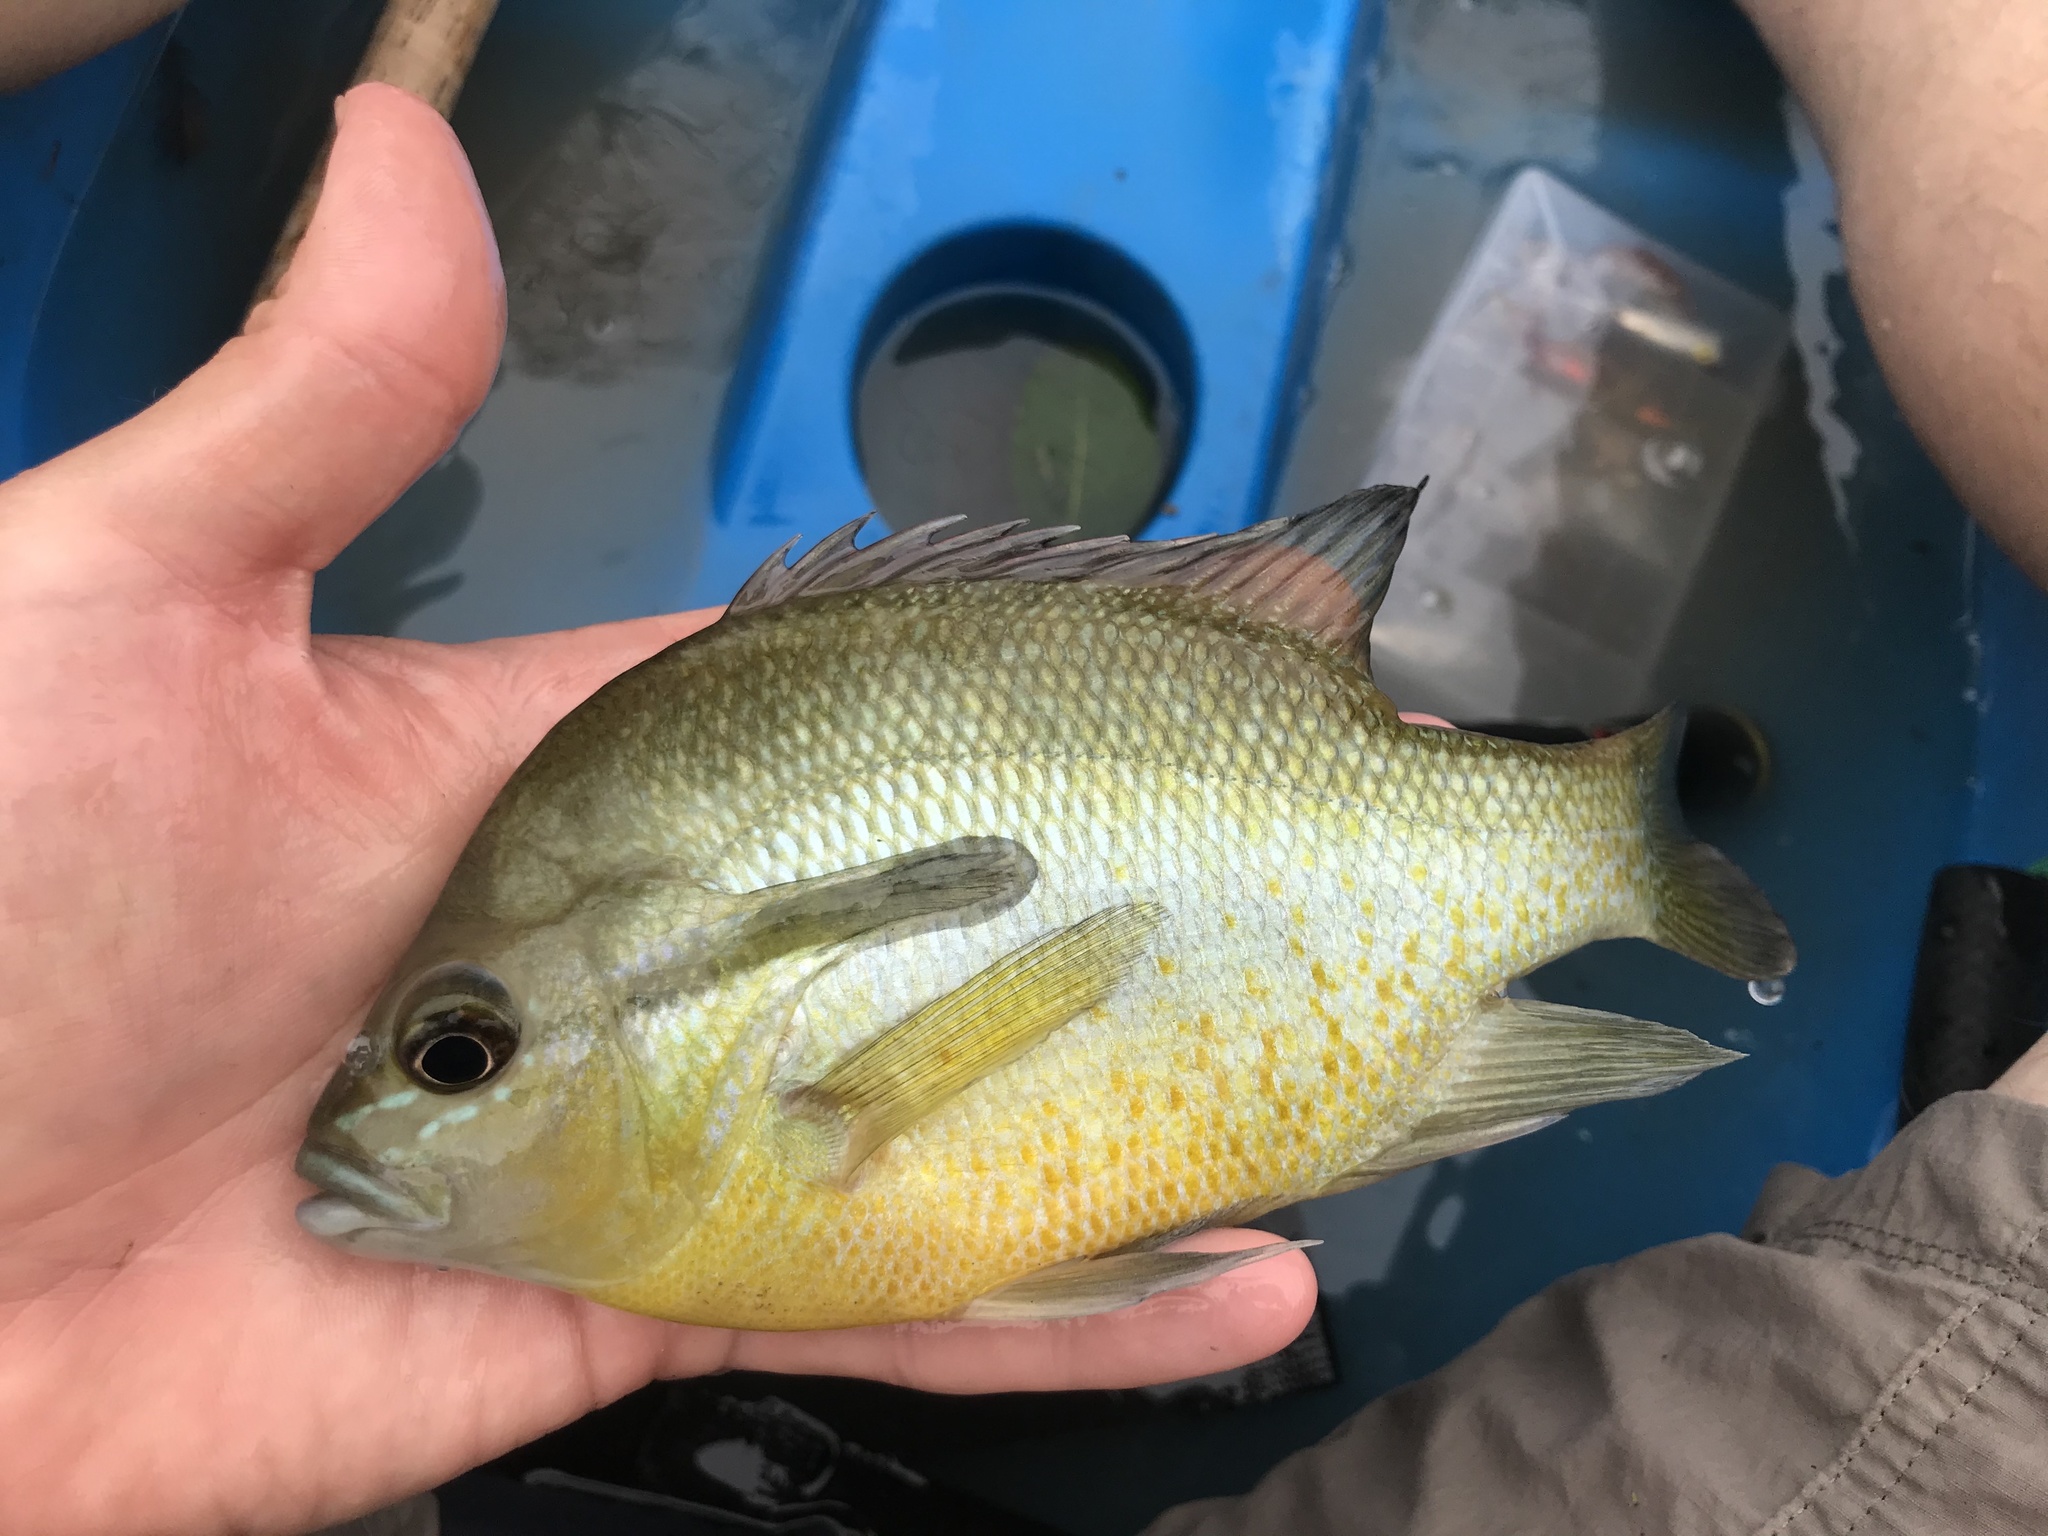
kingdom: Animalia
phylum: Chordata
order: Perciformes
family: Centrarchidae
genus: Lepomis
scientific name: Lepomis auritus
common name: Redbreast sunfish
